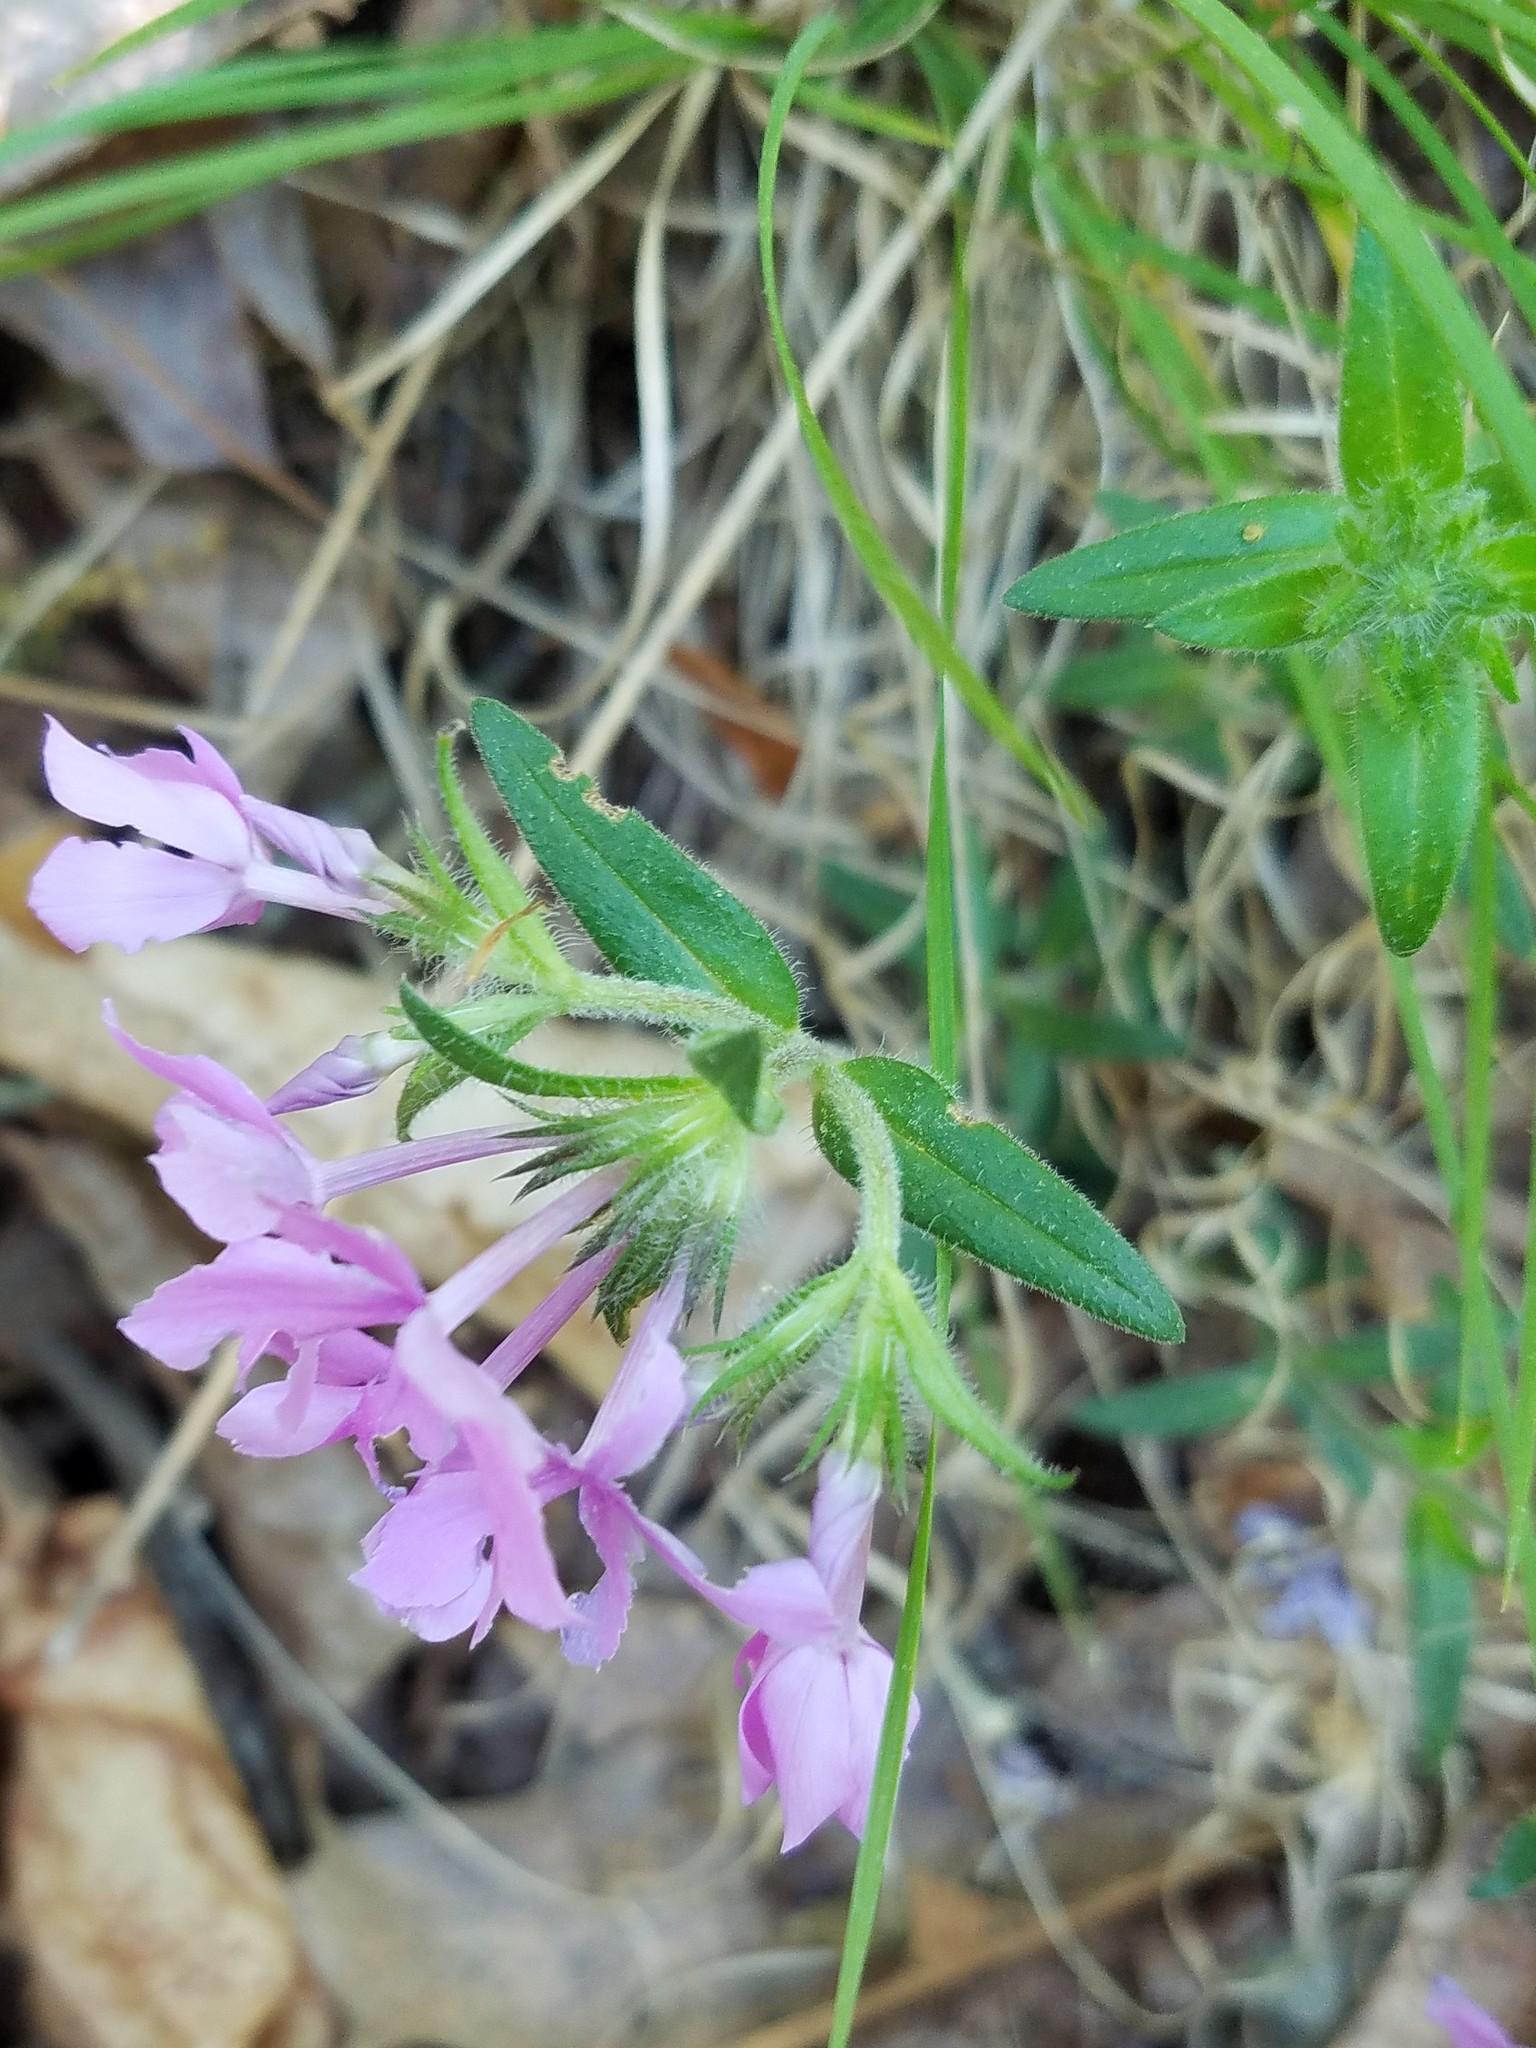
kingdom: Plantae
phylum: Tracheophyta
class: Magnoliopsida
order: Ericales
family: Polemoniaceae
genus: Phlox
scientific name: Phlox amoena
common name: Hairy phlox
